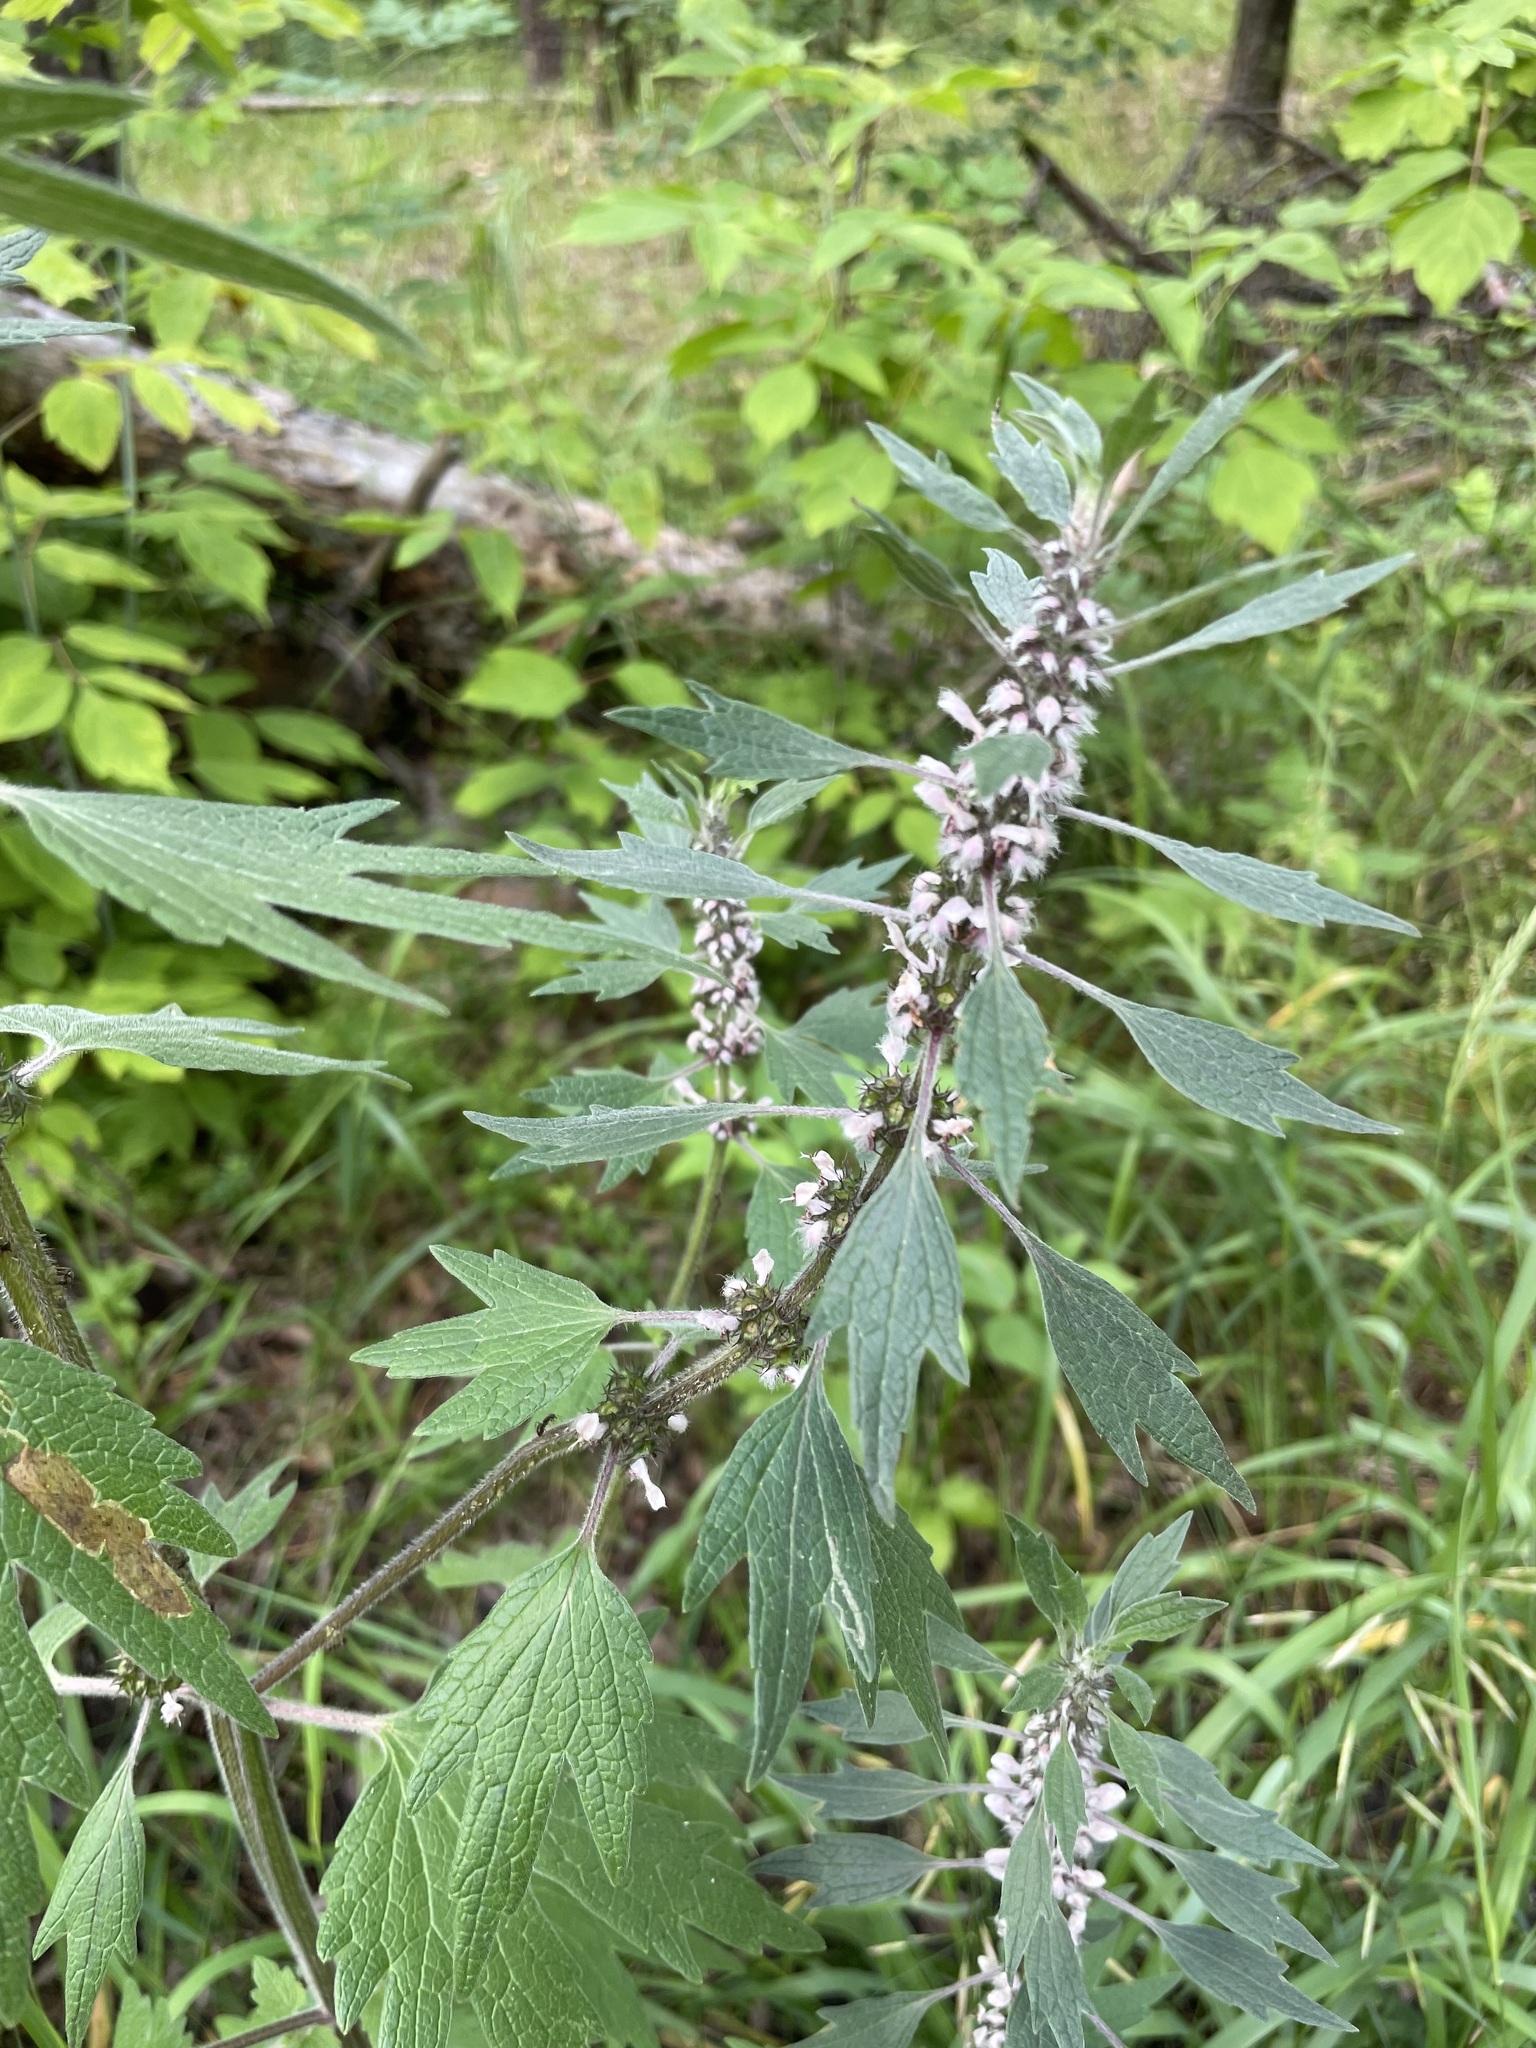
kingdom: Plantae
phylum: Tracheophyta
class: Magnoliopsida
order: Lamiales
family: Lamiaceae
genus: Leonurus
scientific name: Leonurus quinquelobatus
